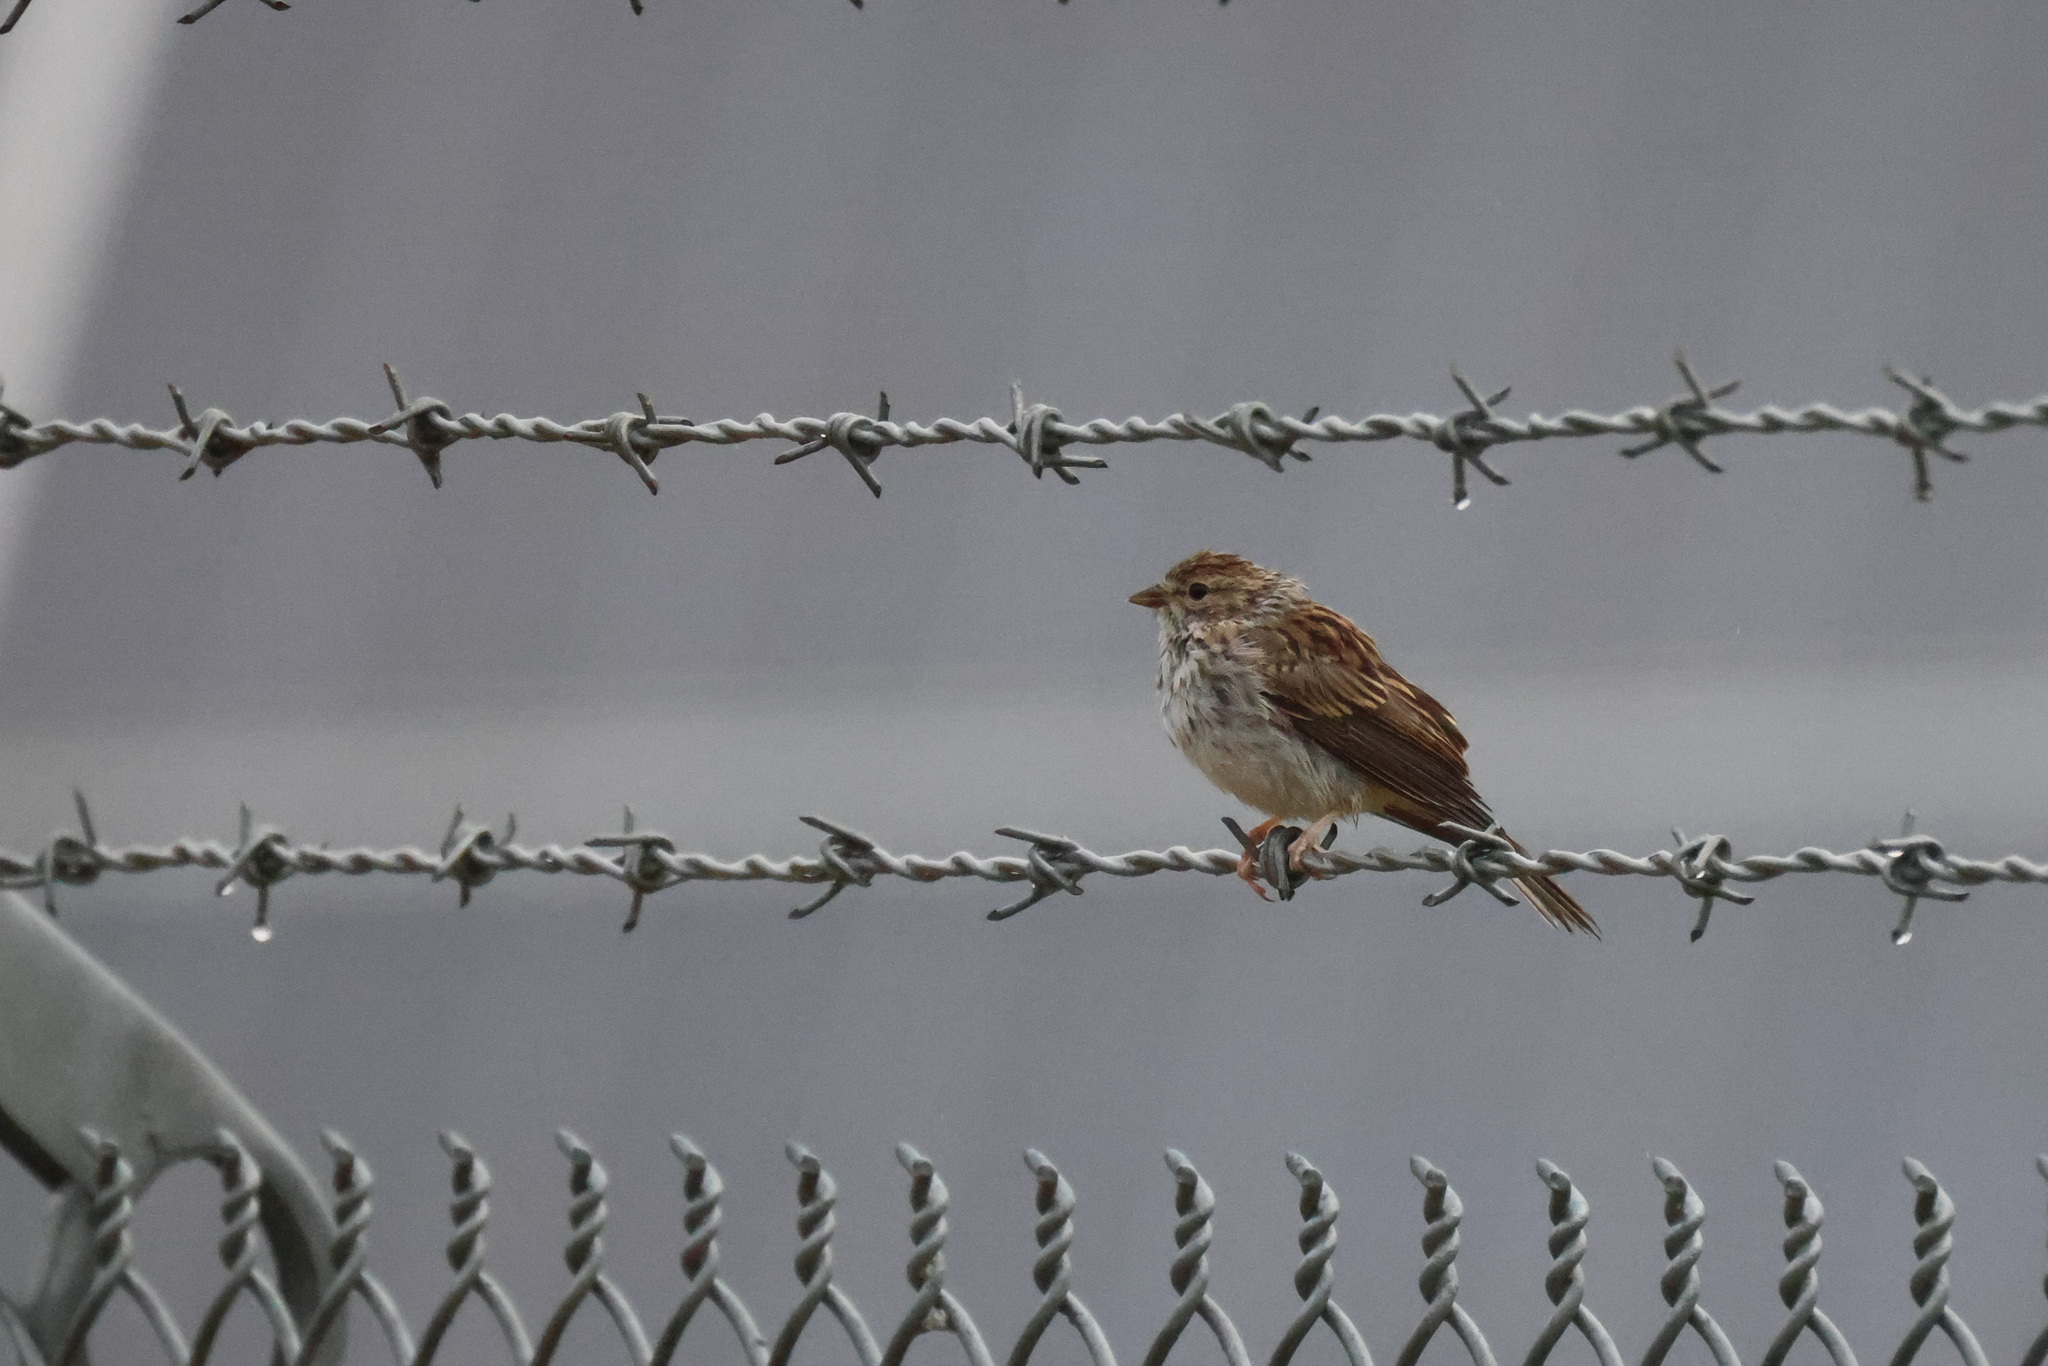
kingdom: Animalia
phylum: Chordata
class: Aves
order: Passeriformes
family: Passerellidae
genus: Spizella
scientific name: Spizella passerina
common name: Chipping sparrow
